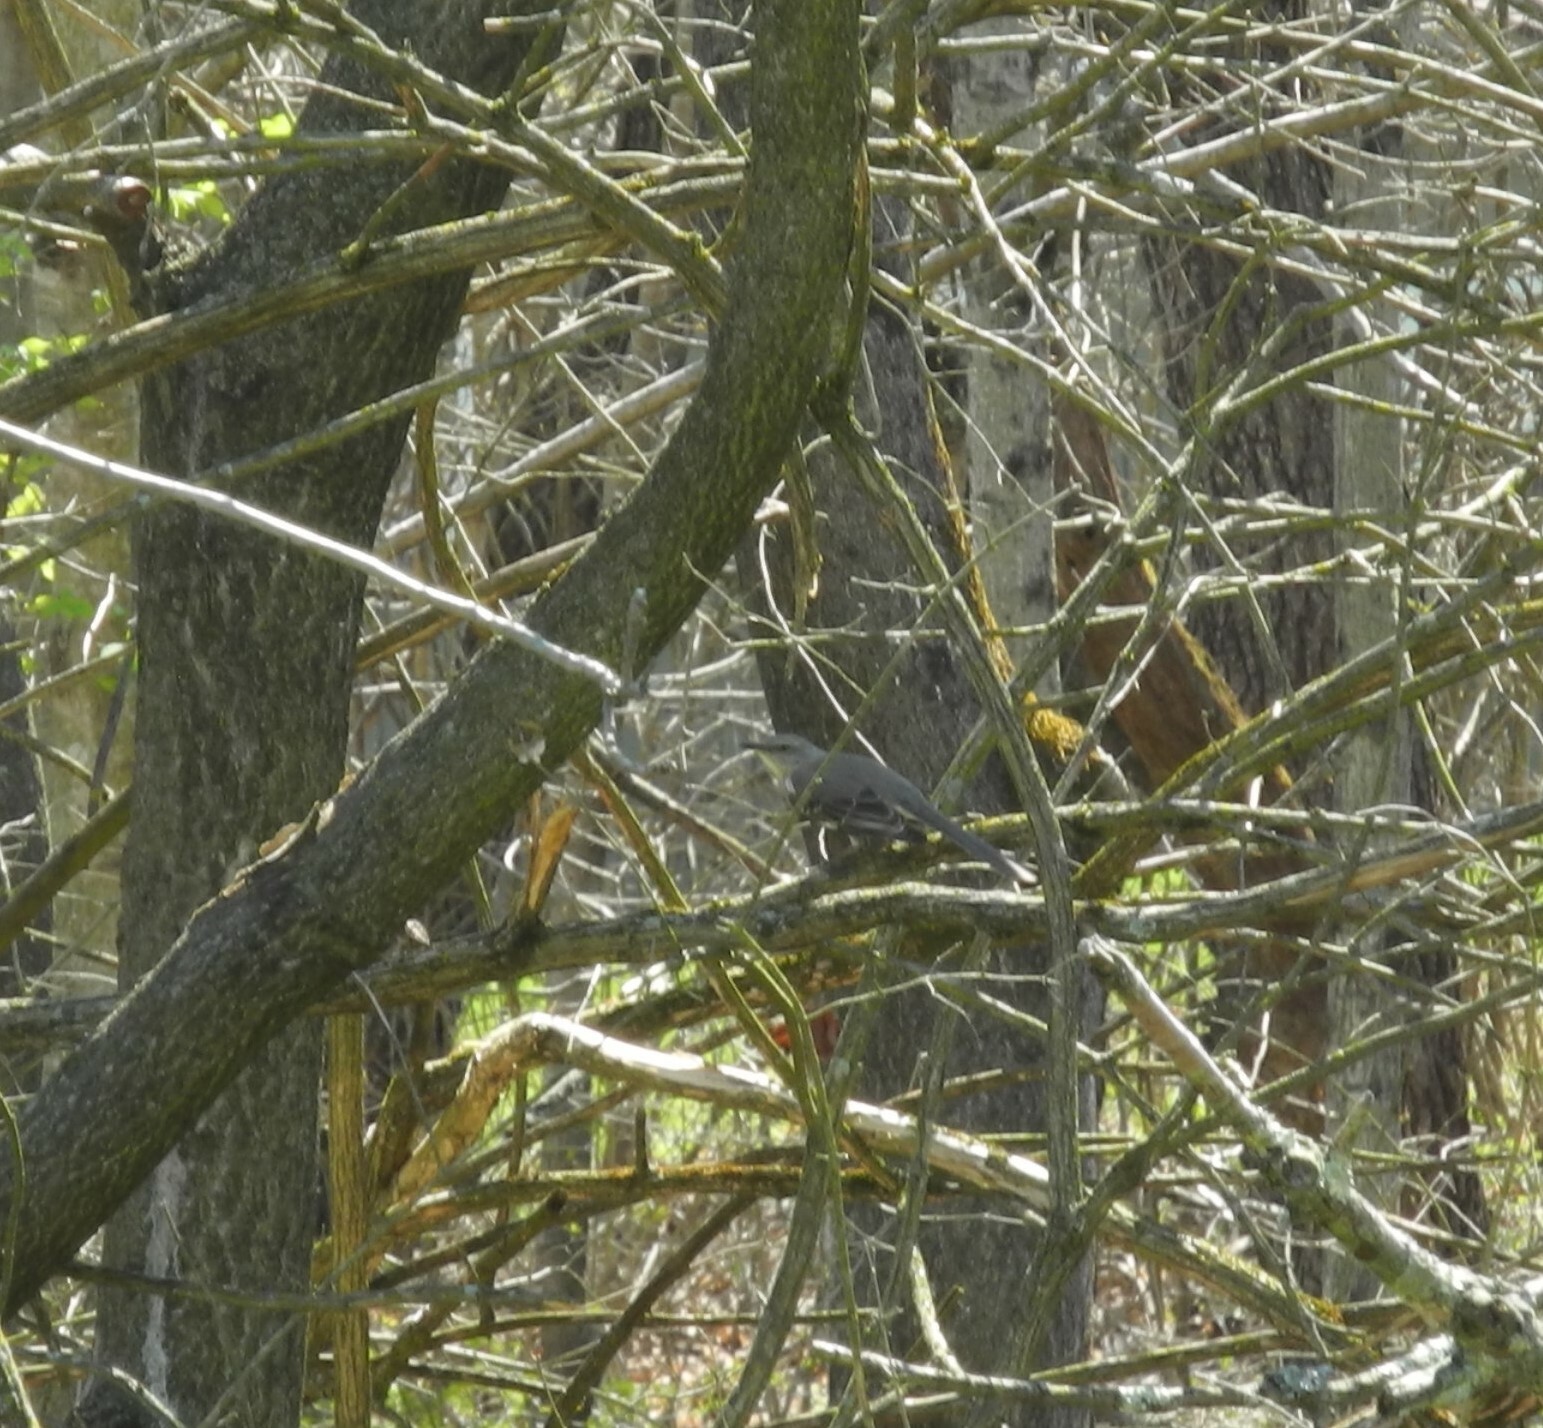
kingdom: Animalia
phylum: Chordata
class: Aves
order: Passeriformes
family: Mimidae
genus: Mimus
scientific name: Mimus polyglottos
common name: Northern mockingbird
